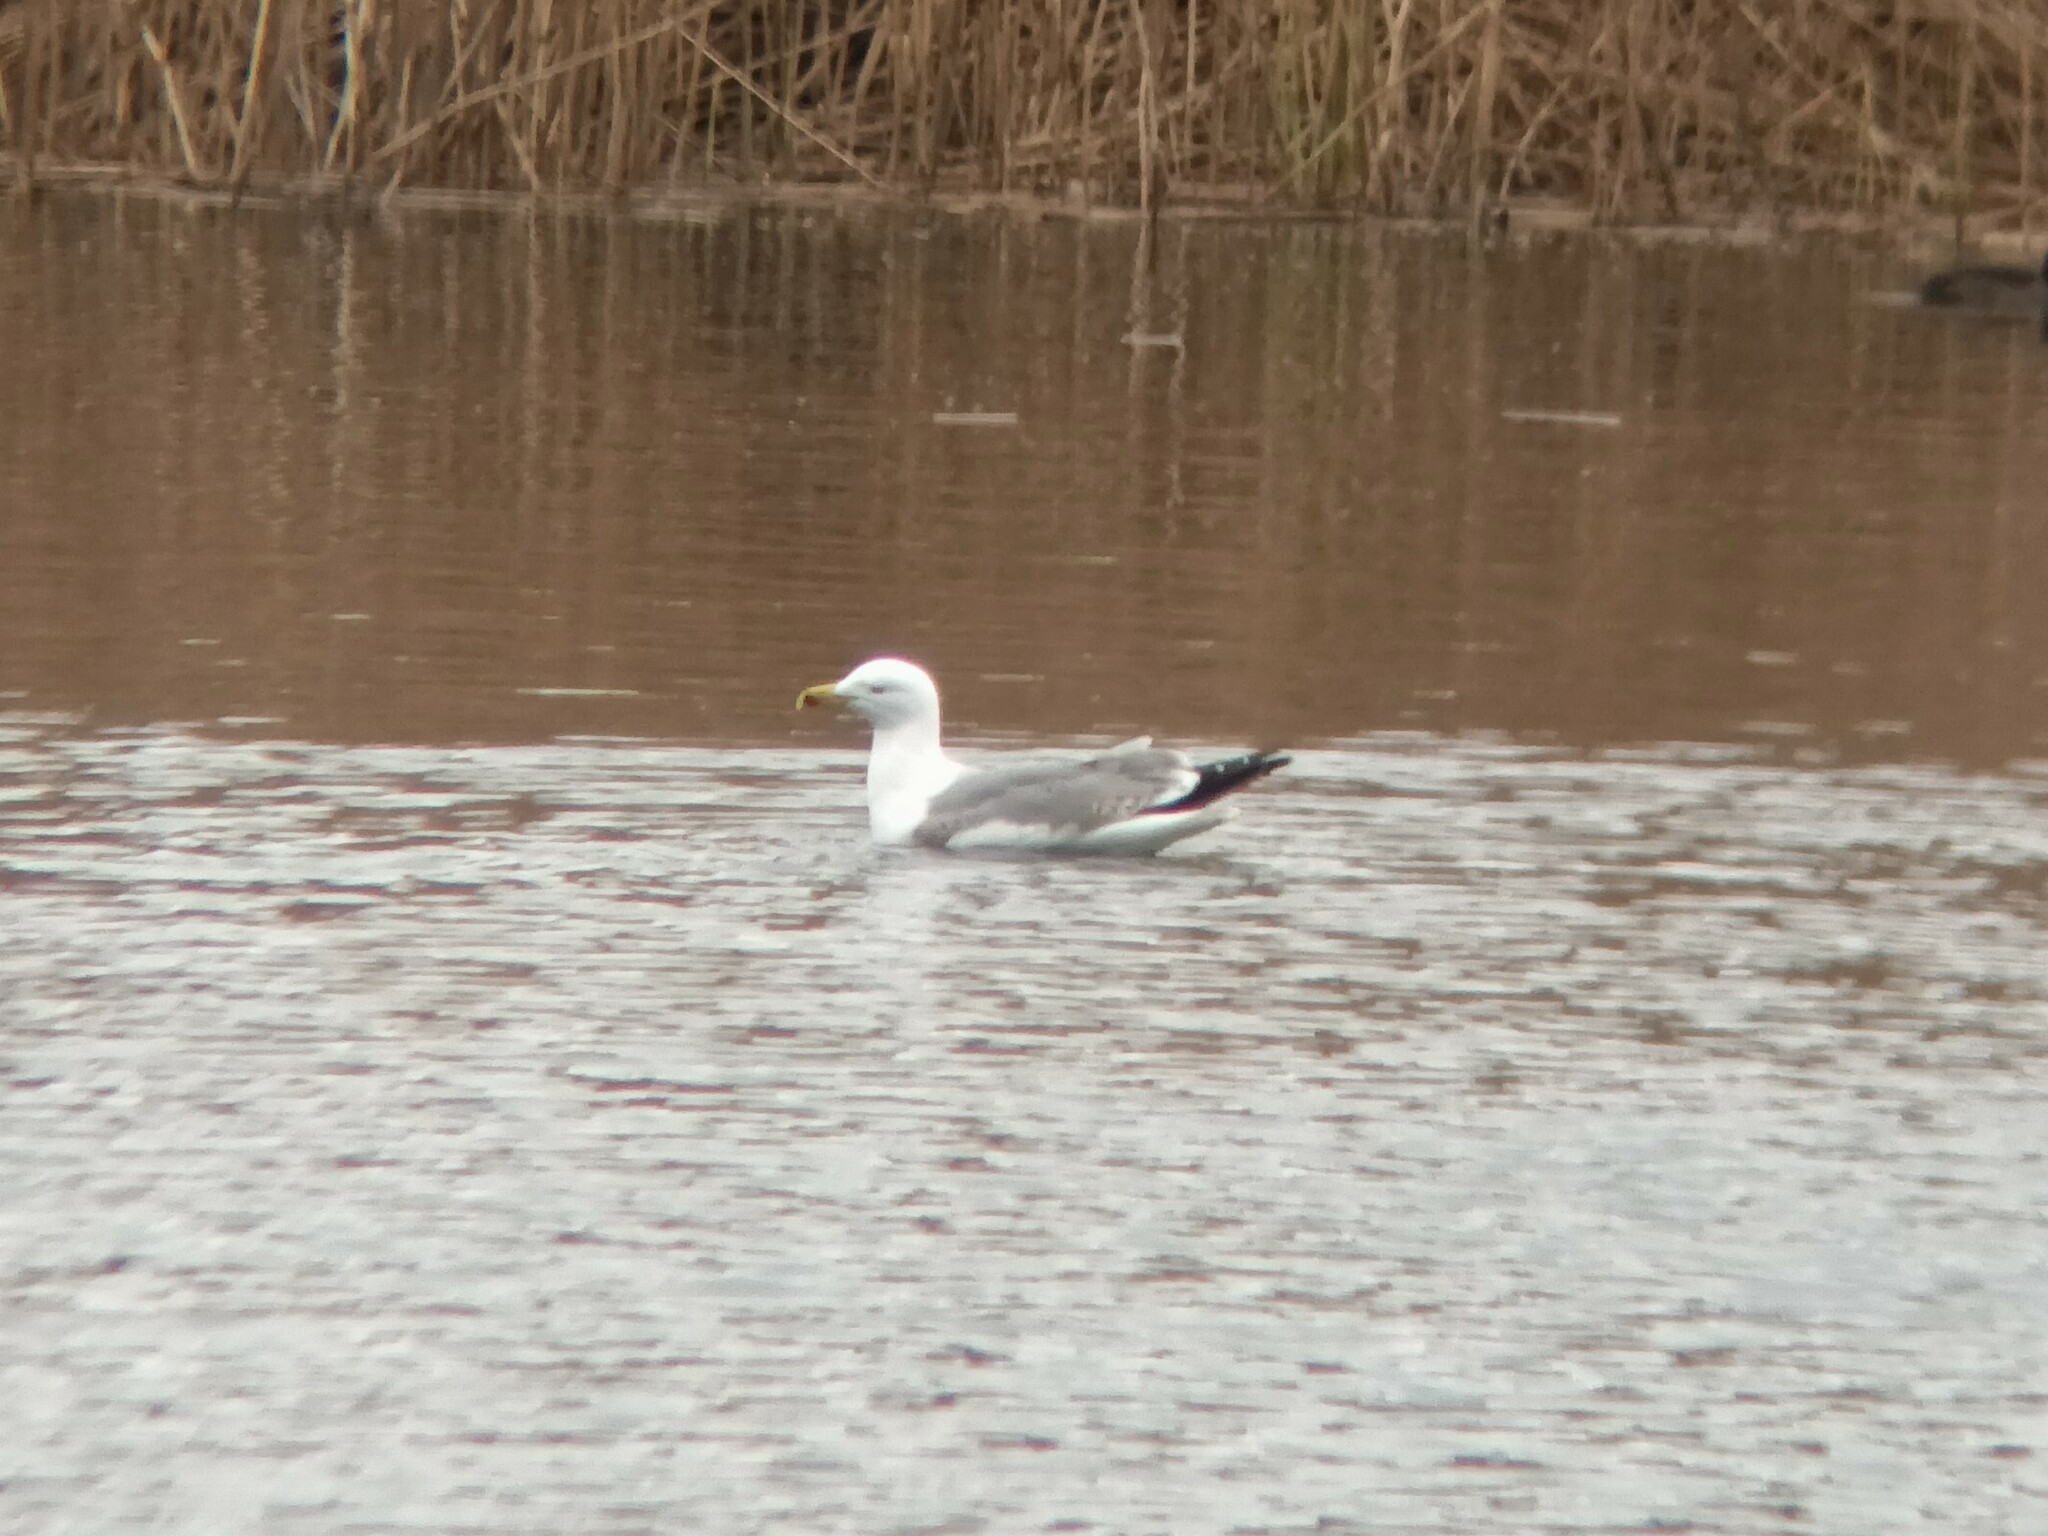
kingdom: Animalia
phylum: Chordata
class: Aves
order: Charadriiformes
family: Laridae
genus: Larus
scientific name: Larus michahellis
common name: Yellow-legged gull
